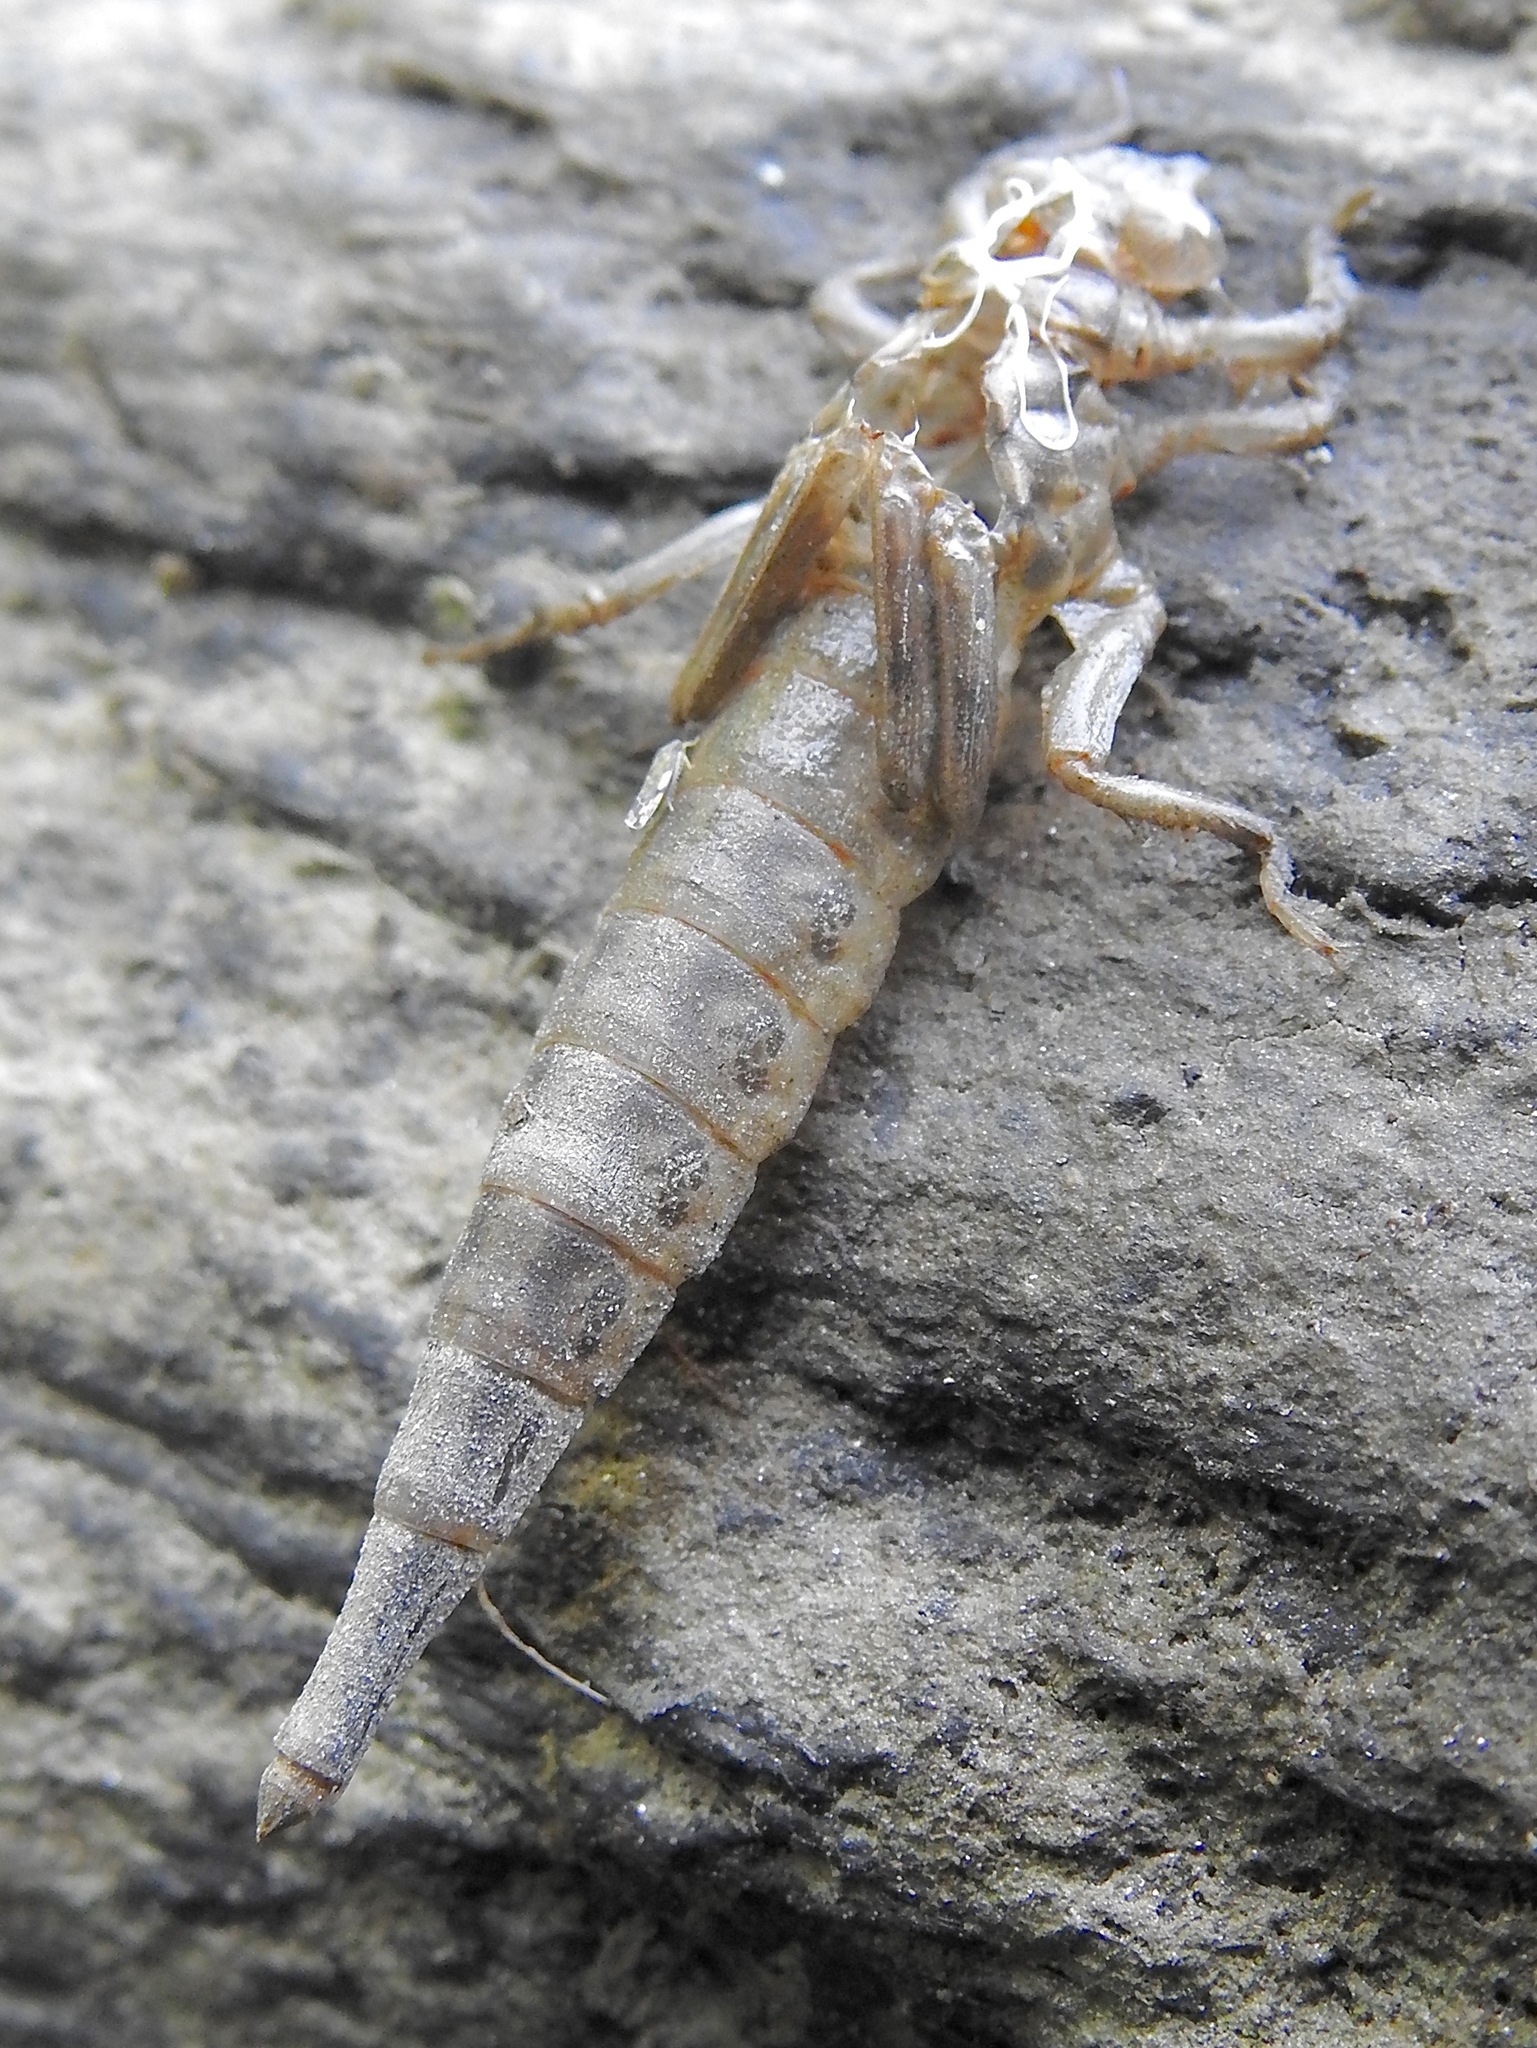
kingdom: Animalia
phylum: Arthropoda
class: Insecta
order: Odonata
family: Gomphidae
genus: Stylurus
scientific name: Stylurus spiniceps
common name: Arrow clubtail
